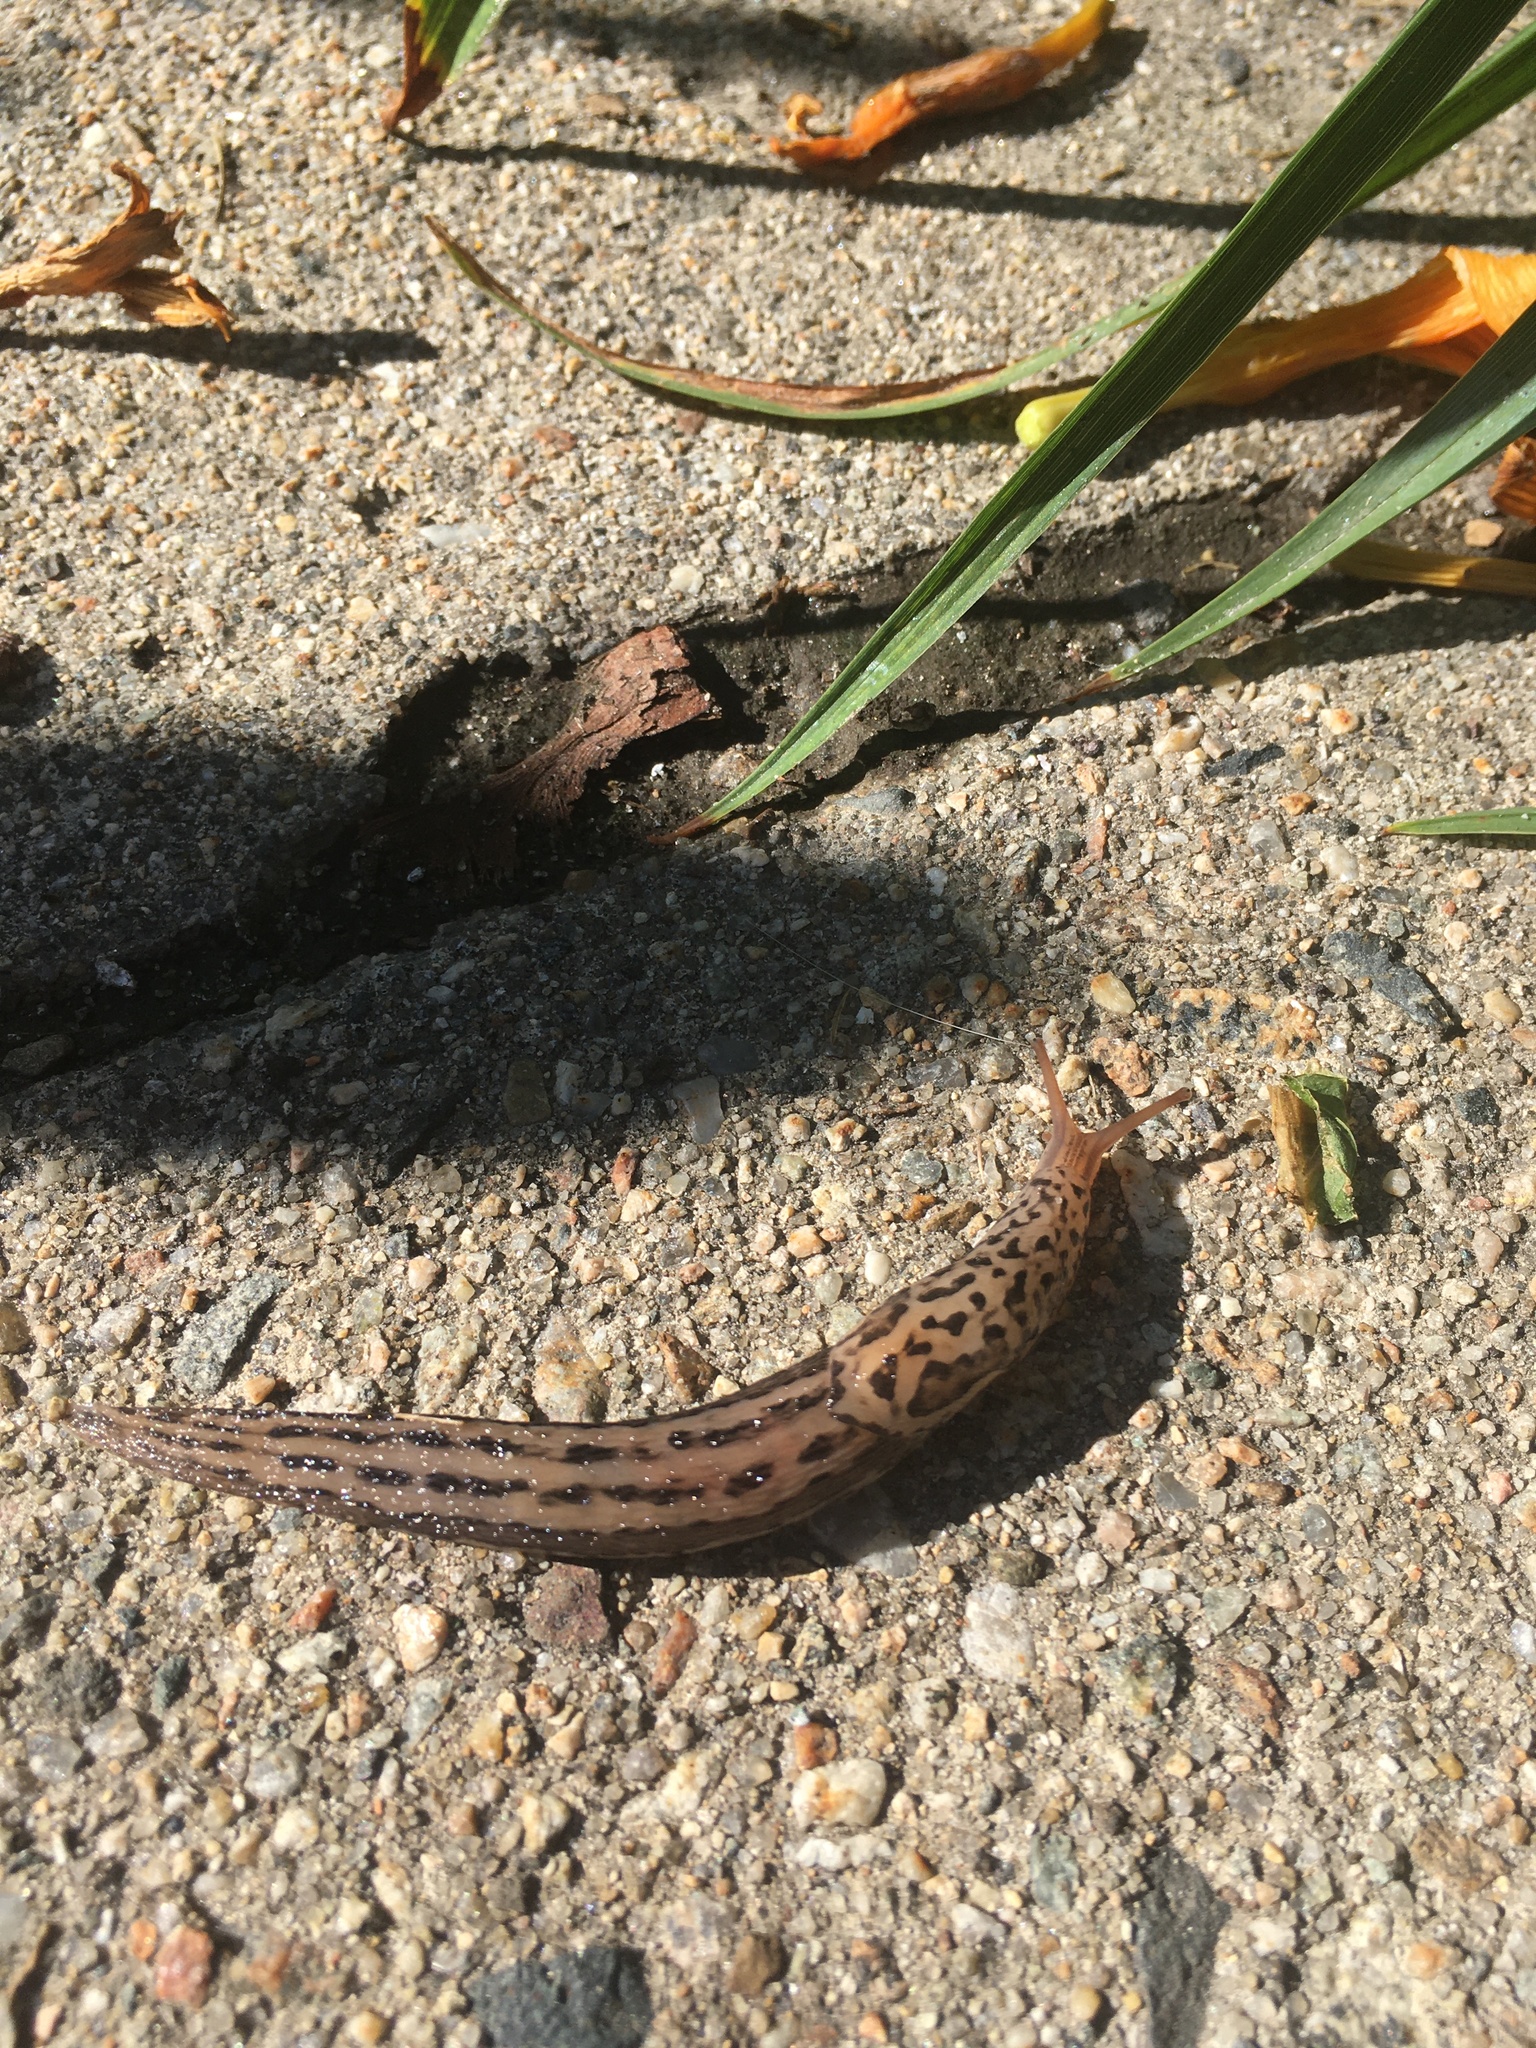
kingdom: Animalia
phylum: Mollusca
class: Gastropoda
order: Stylommatophora
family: Limacidae
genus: Limax
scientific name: Limax maximus
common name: Great grey slug
